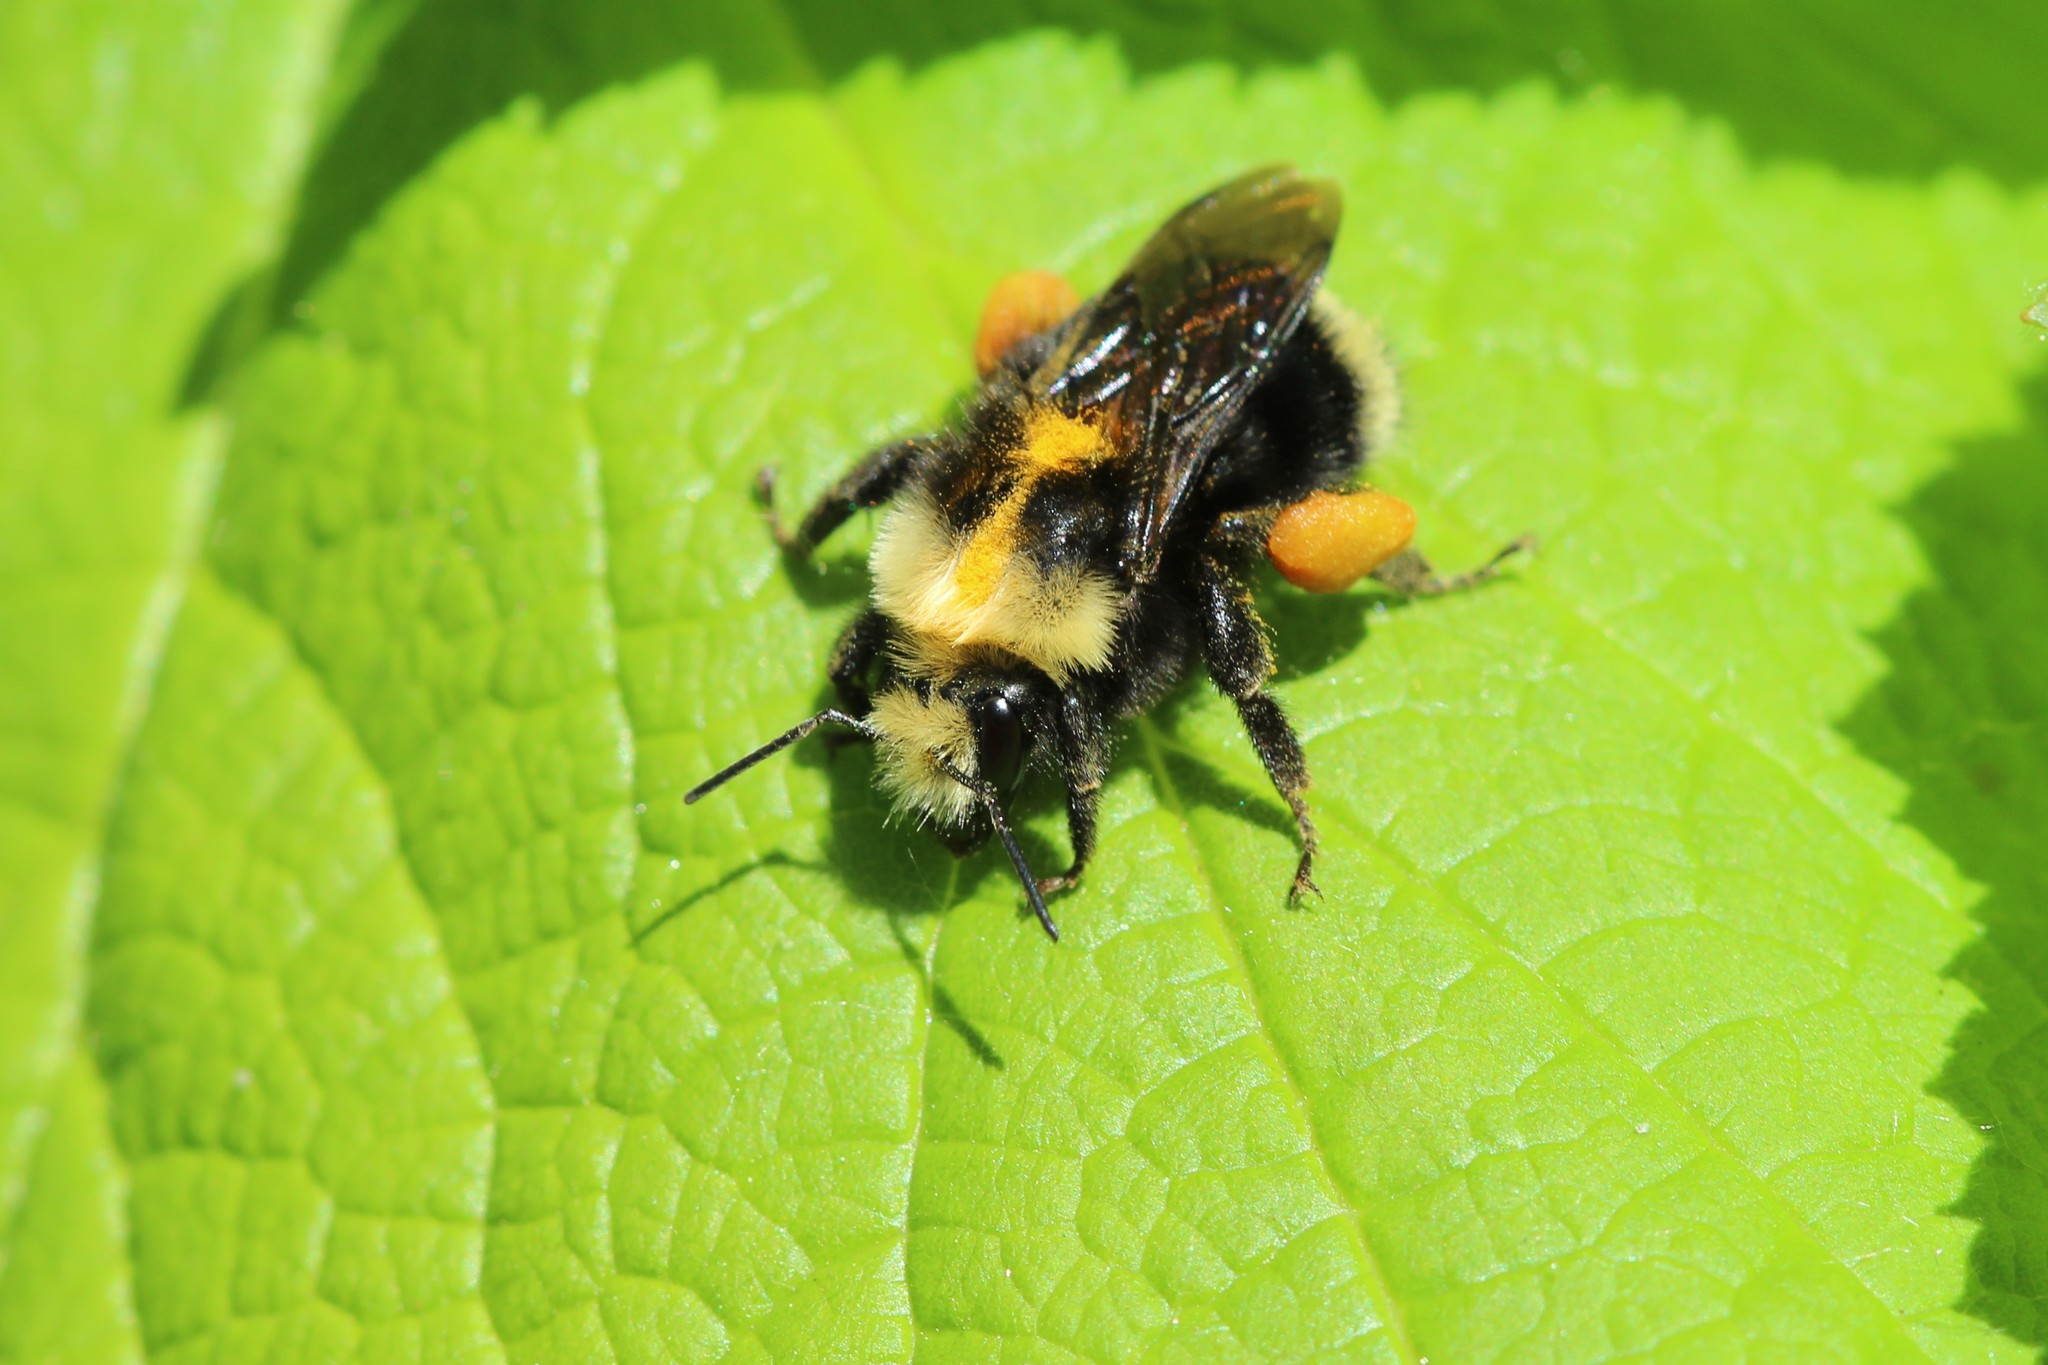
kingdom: Animalia
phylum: Arthropoda
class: Insecta
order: Hymenoptera
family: Apidae
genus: Bombus
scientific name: Bombus vosnesenskii
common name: Vosnesensky bumble bee
